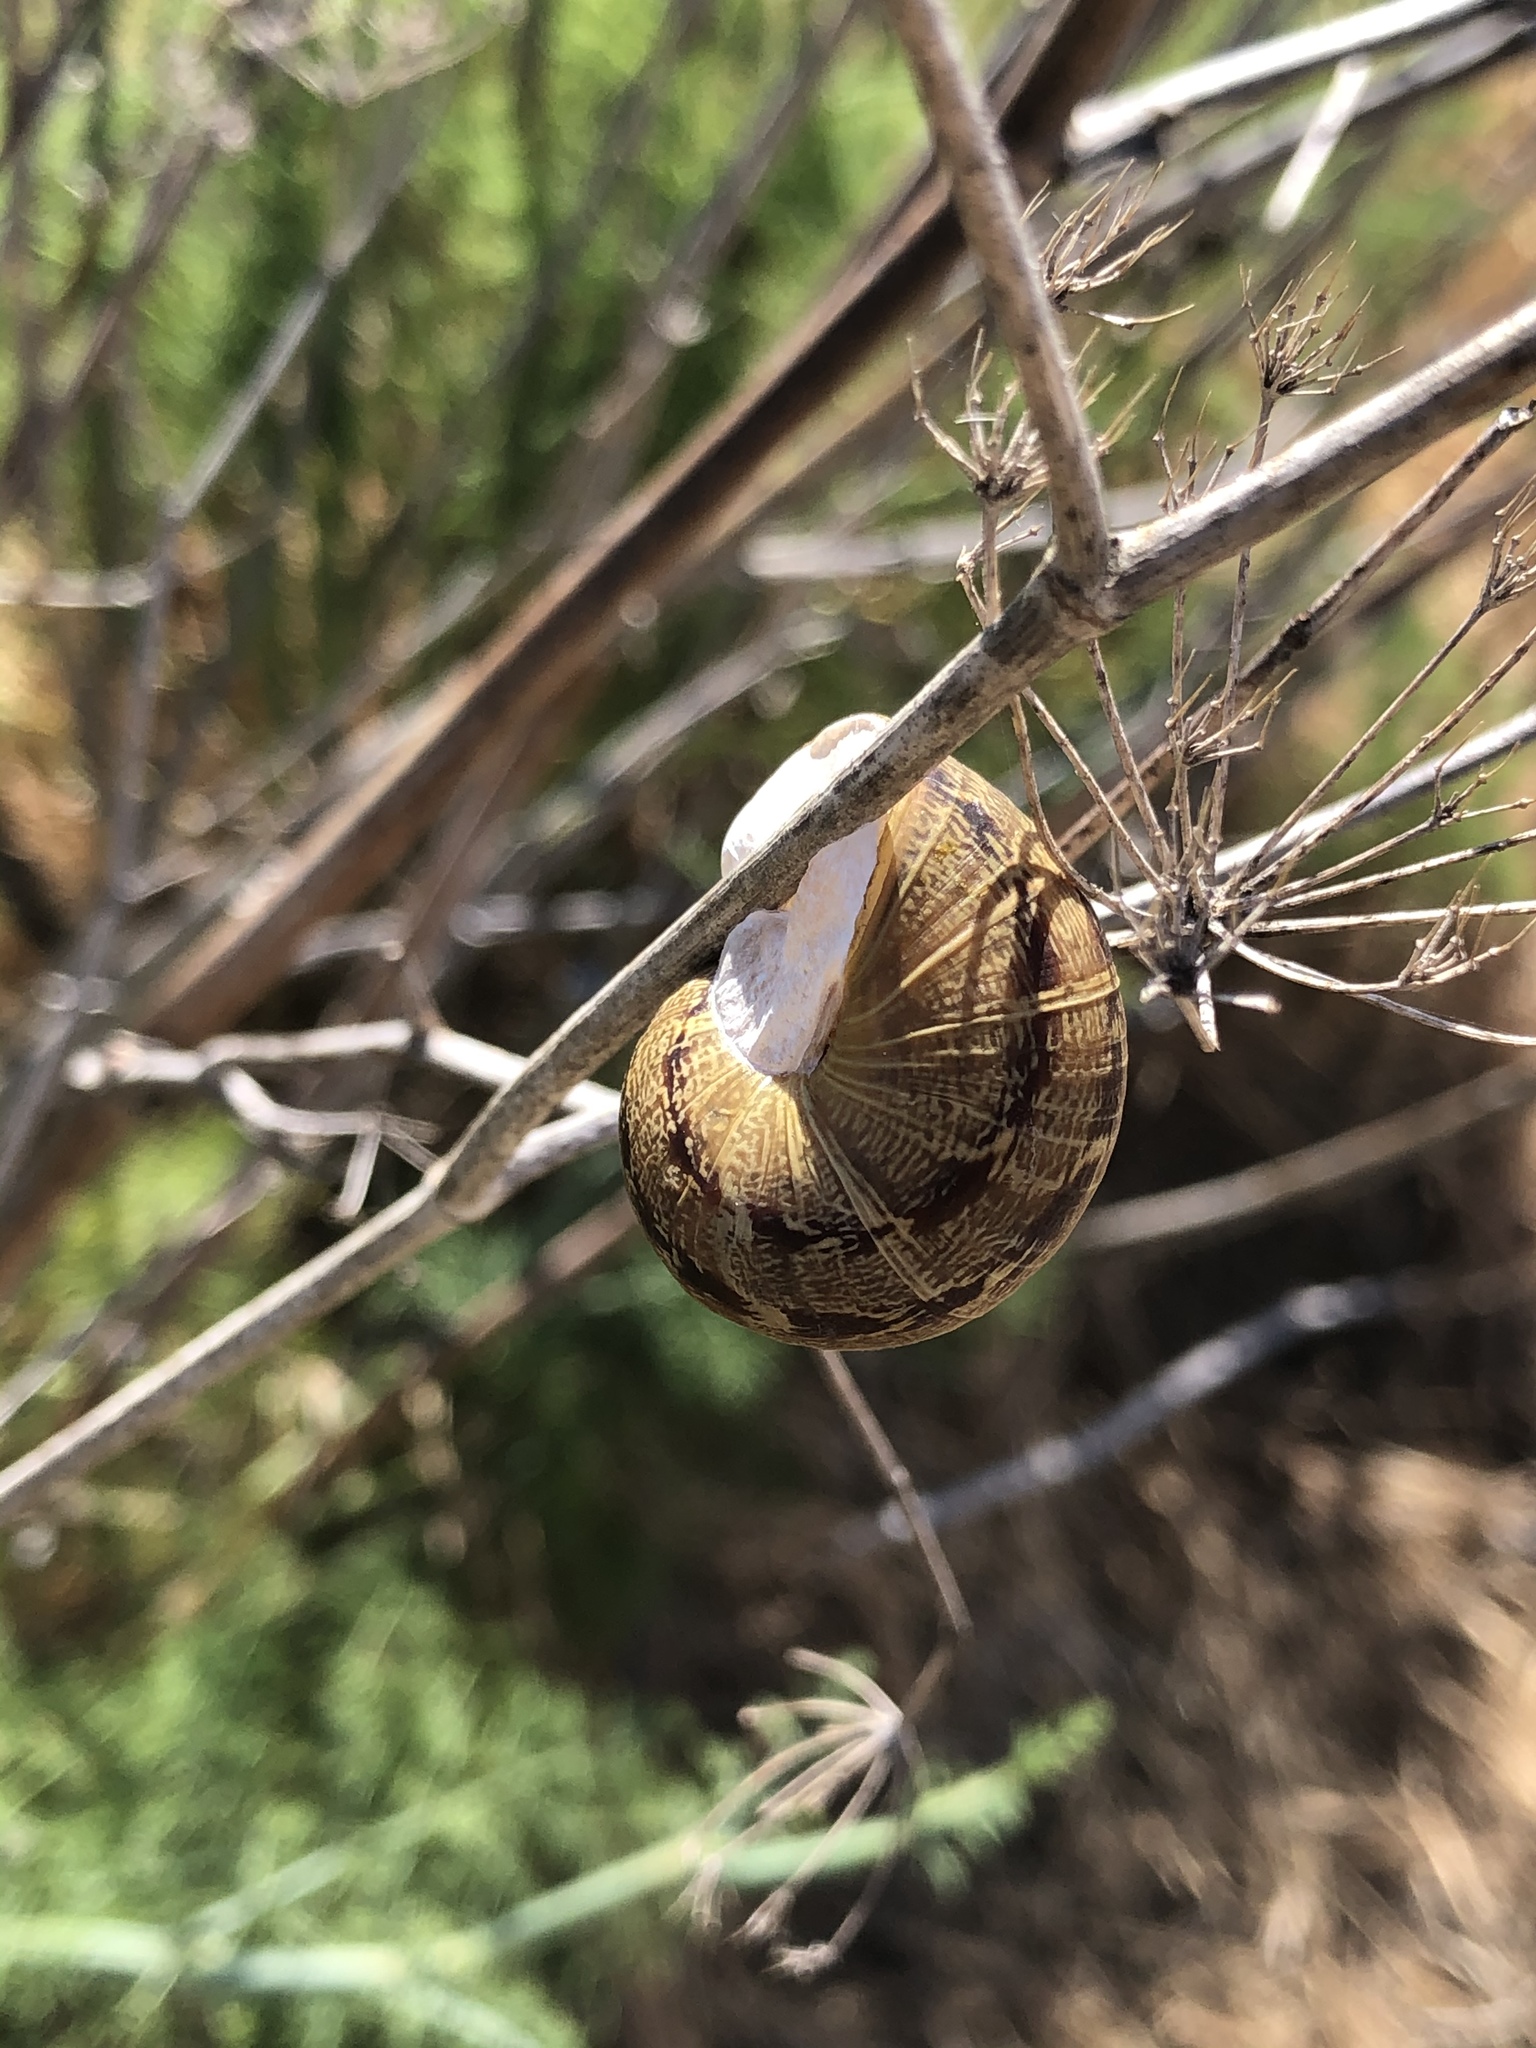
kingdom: Animalia
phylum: Mollusca
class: Gastropoda
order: Stylommatophora
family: Helicidae
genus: Cornu
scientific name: Cornu aspersum
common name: Brown garden snail
